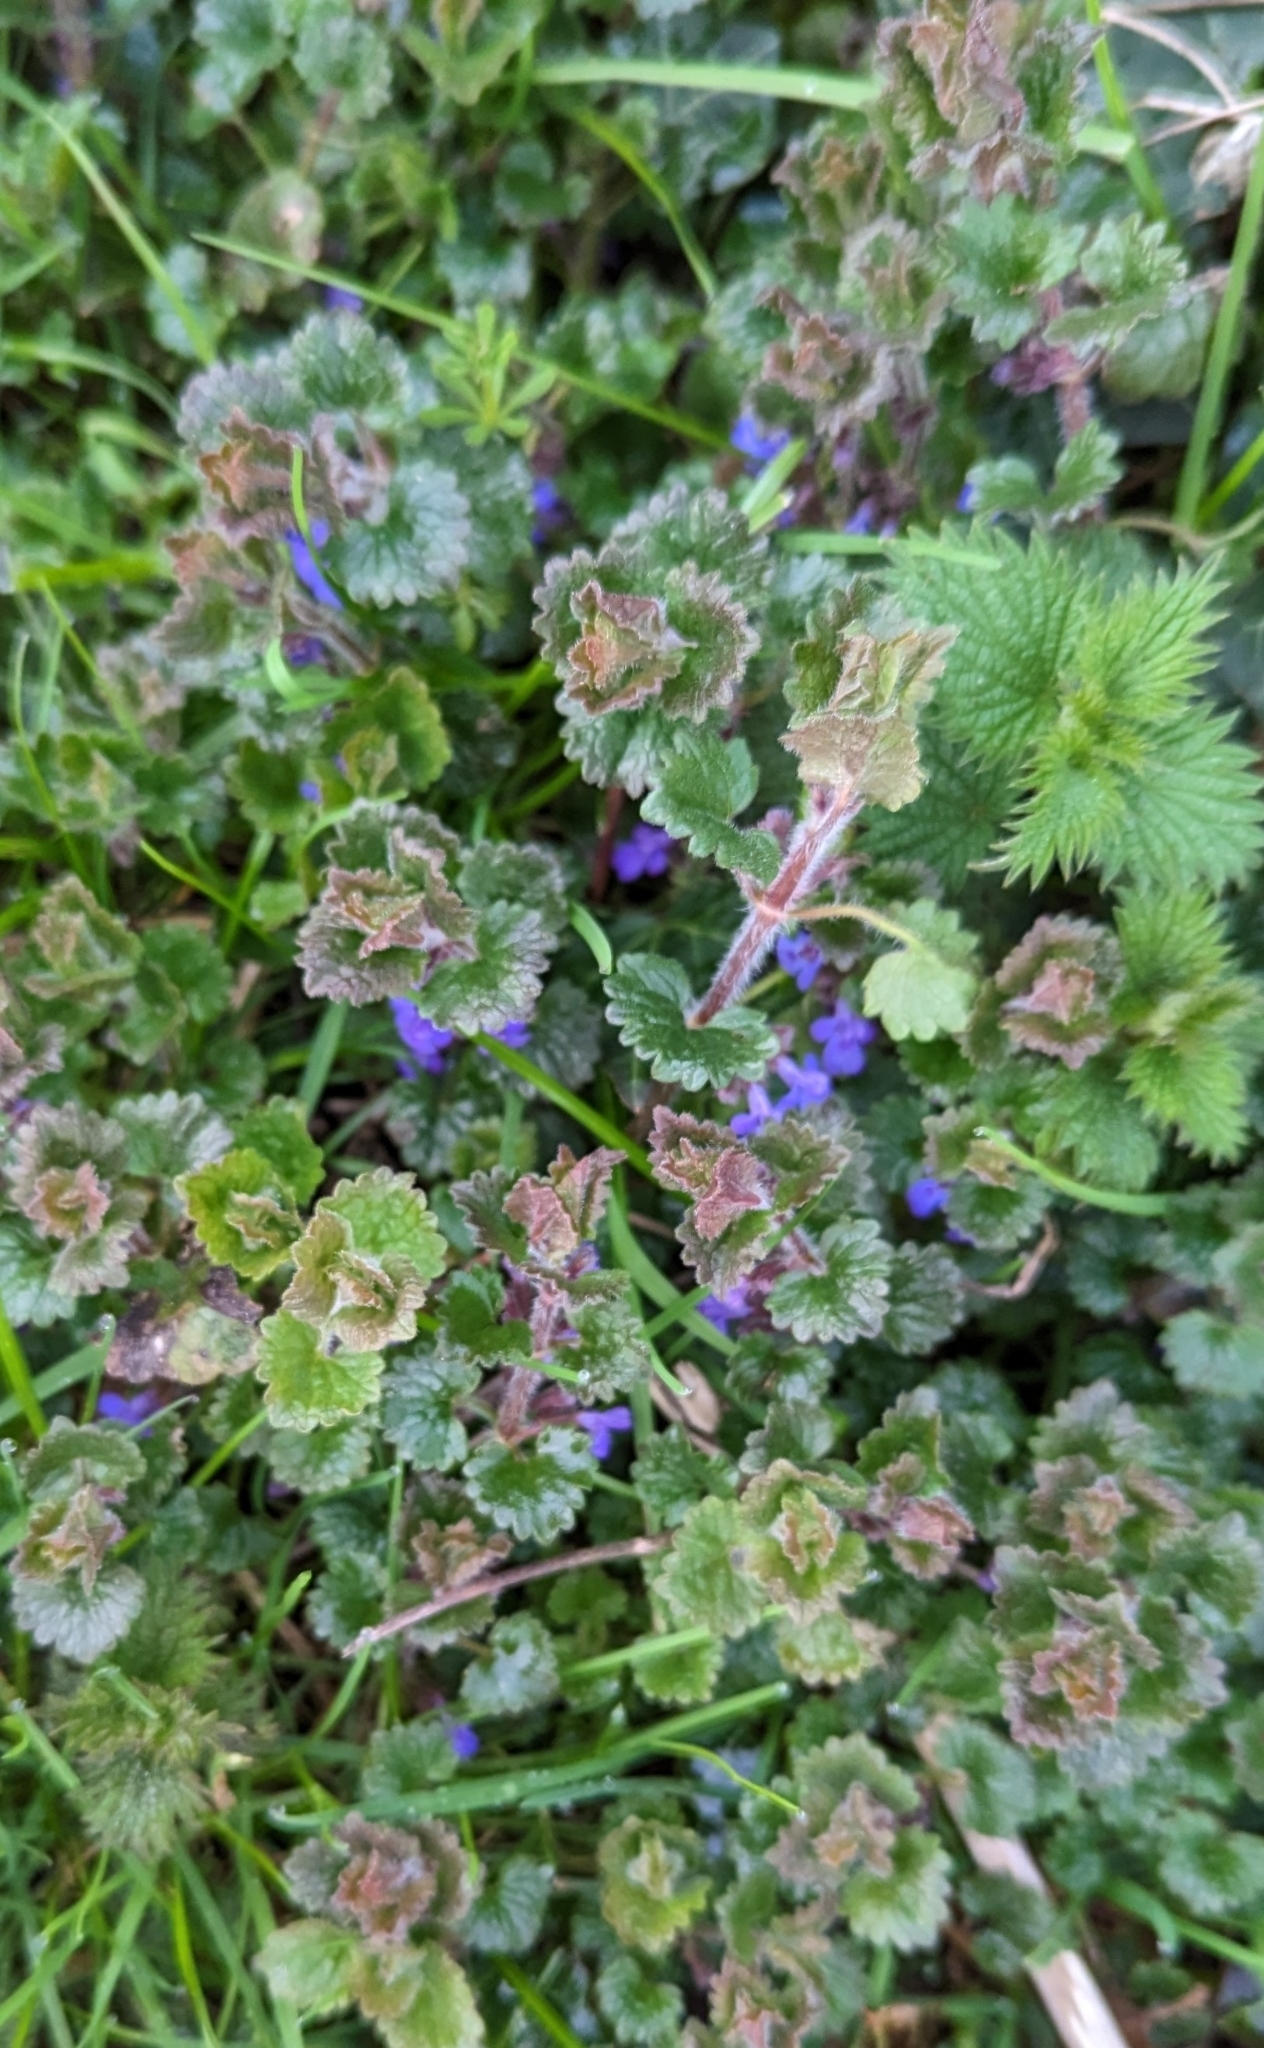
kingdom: Plantae
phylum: Tracheophyta
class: Magnoliopsida
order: Lamiales
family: Lamiaceae
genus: Glechoma
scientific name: Glechoma hederacea
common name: Ground ivy
